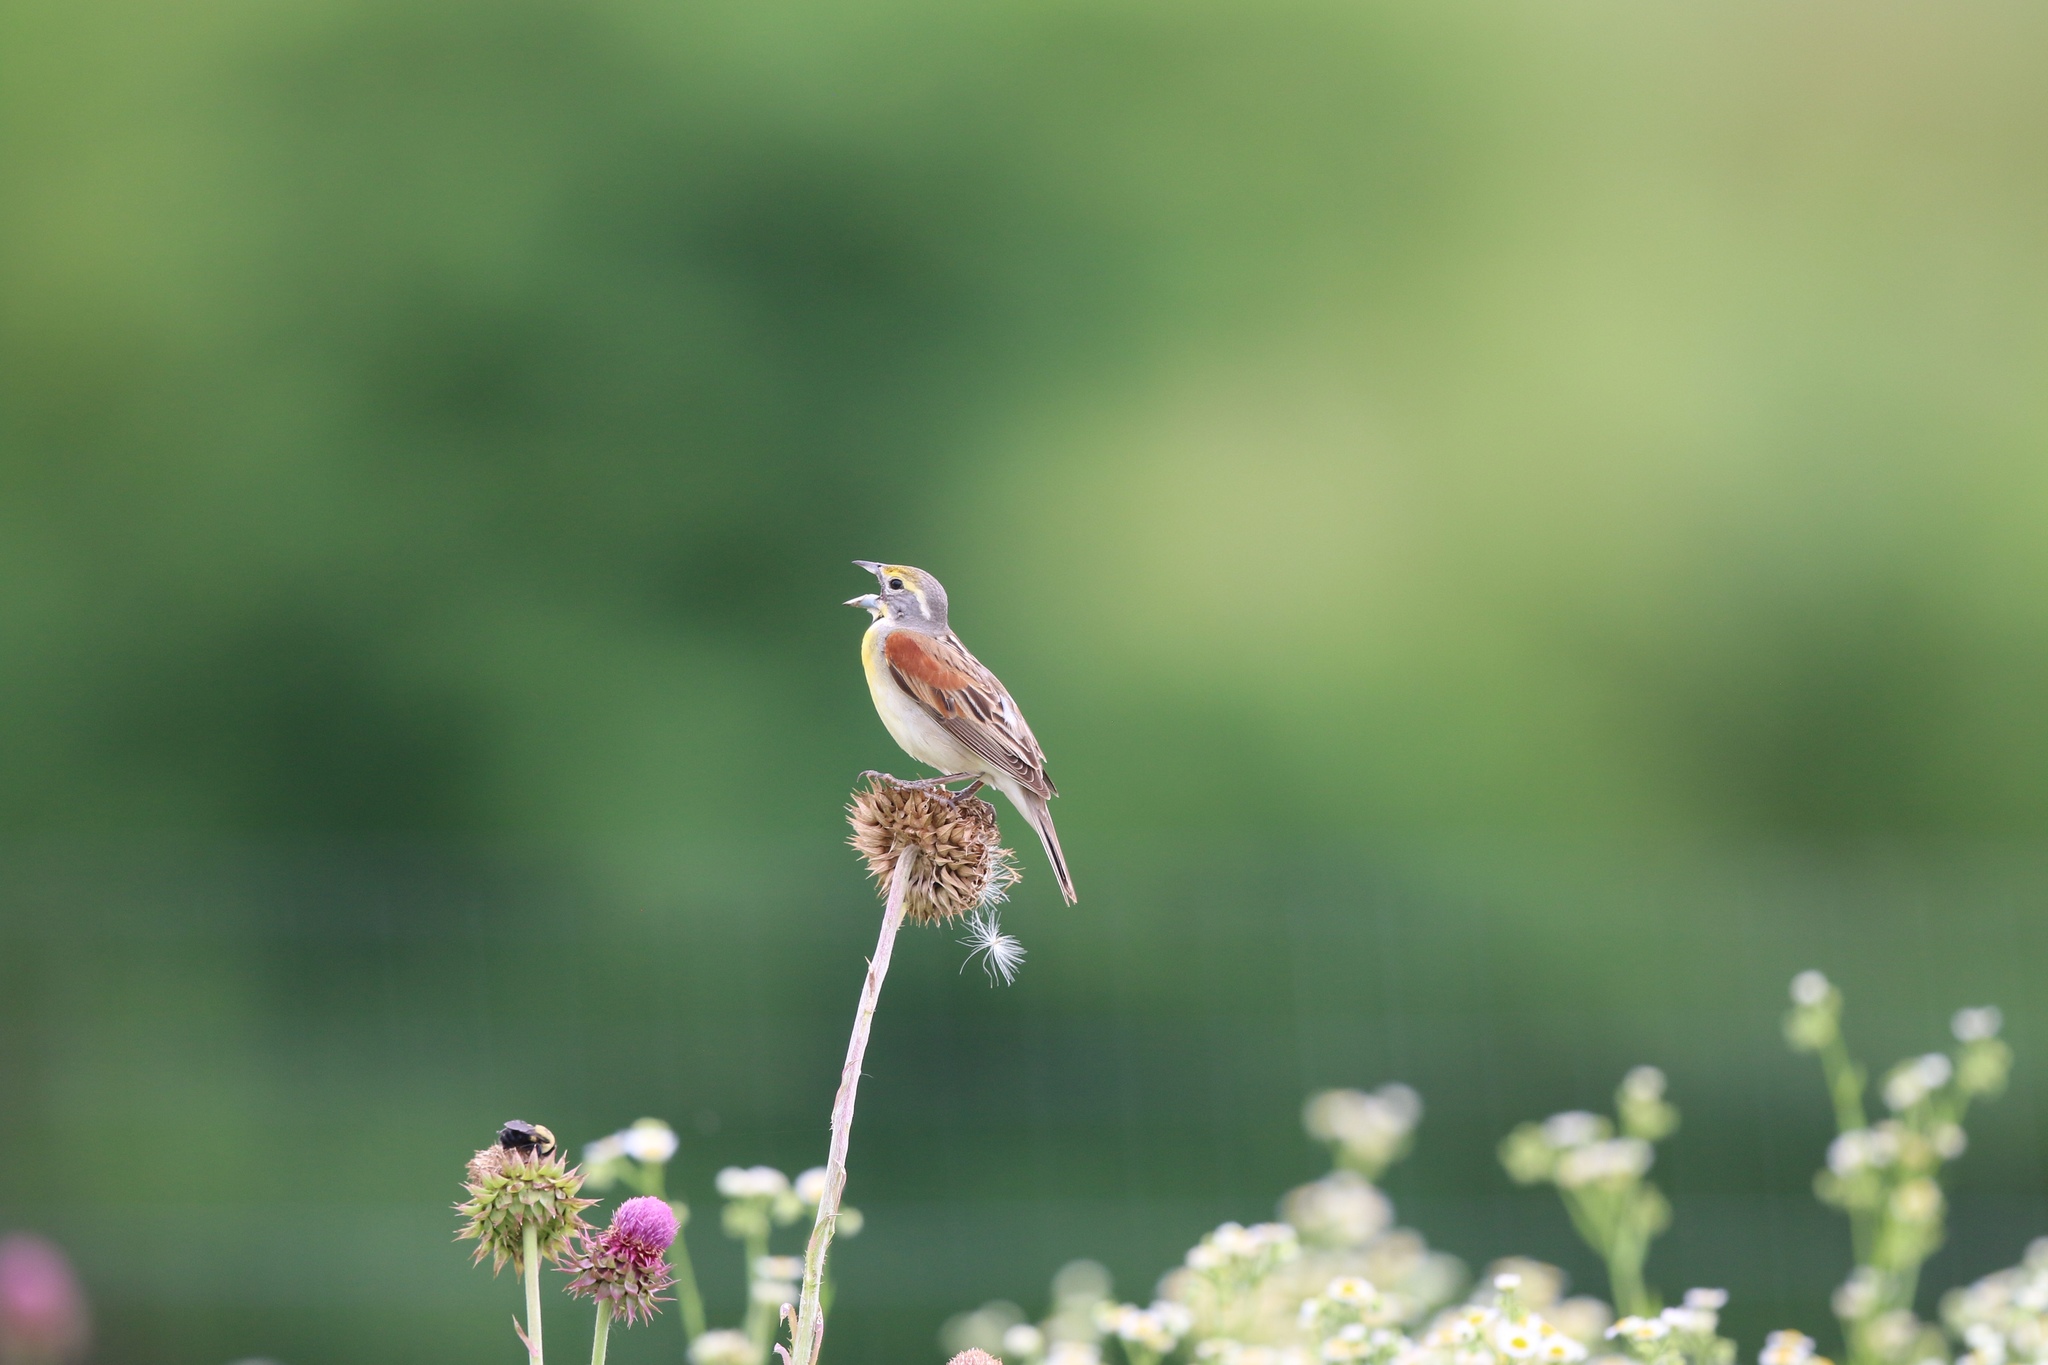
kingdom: Animalia
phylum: Chordata
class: Aves
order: Passeriformes
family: Cardinalidae
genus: Spiza
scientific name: Spiza americana
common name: Dickcissel
